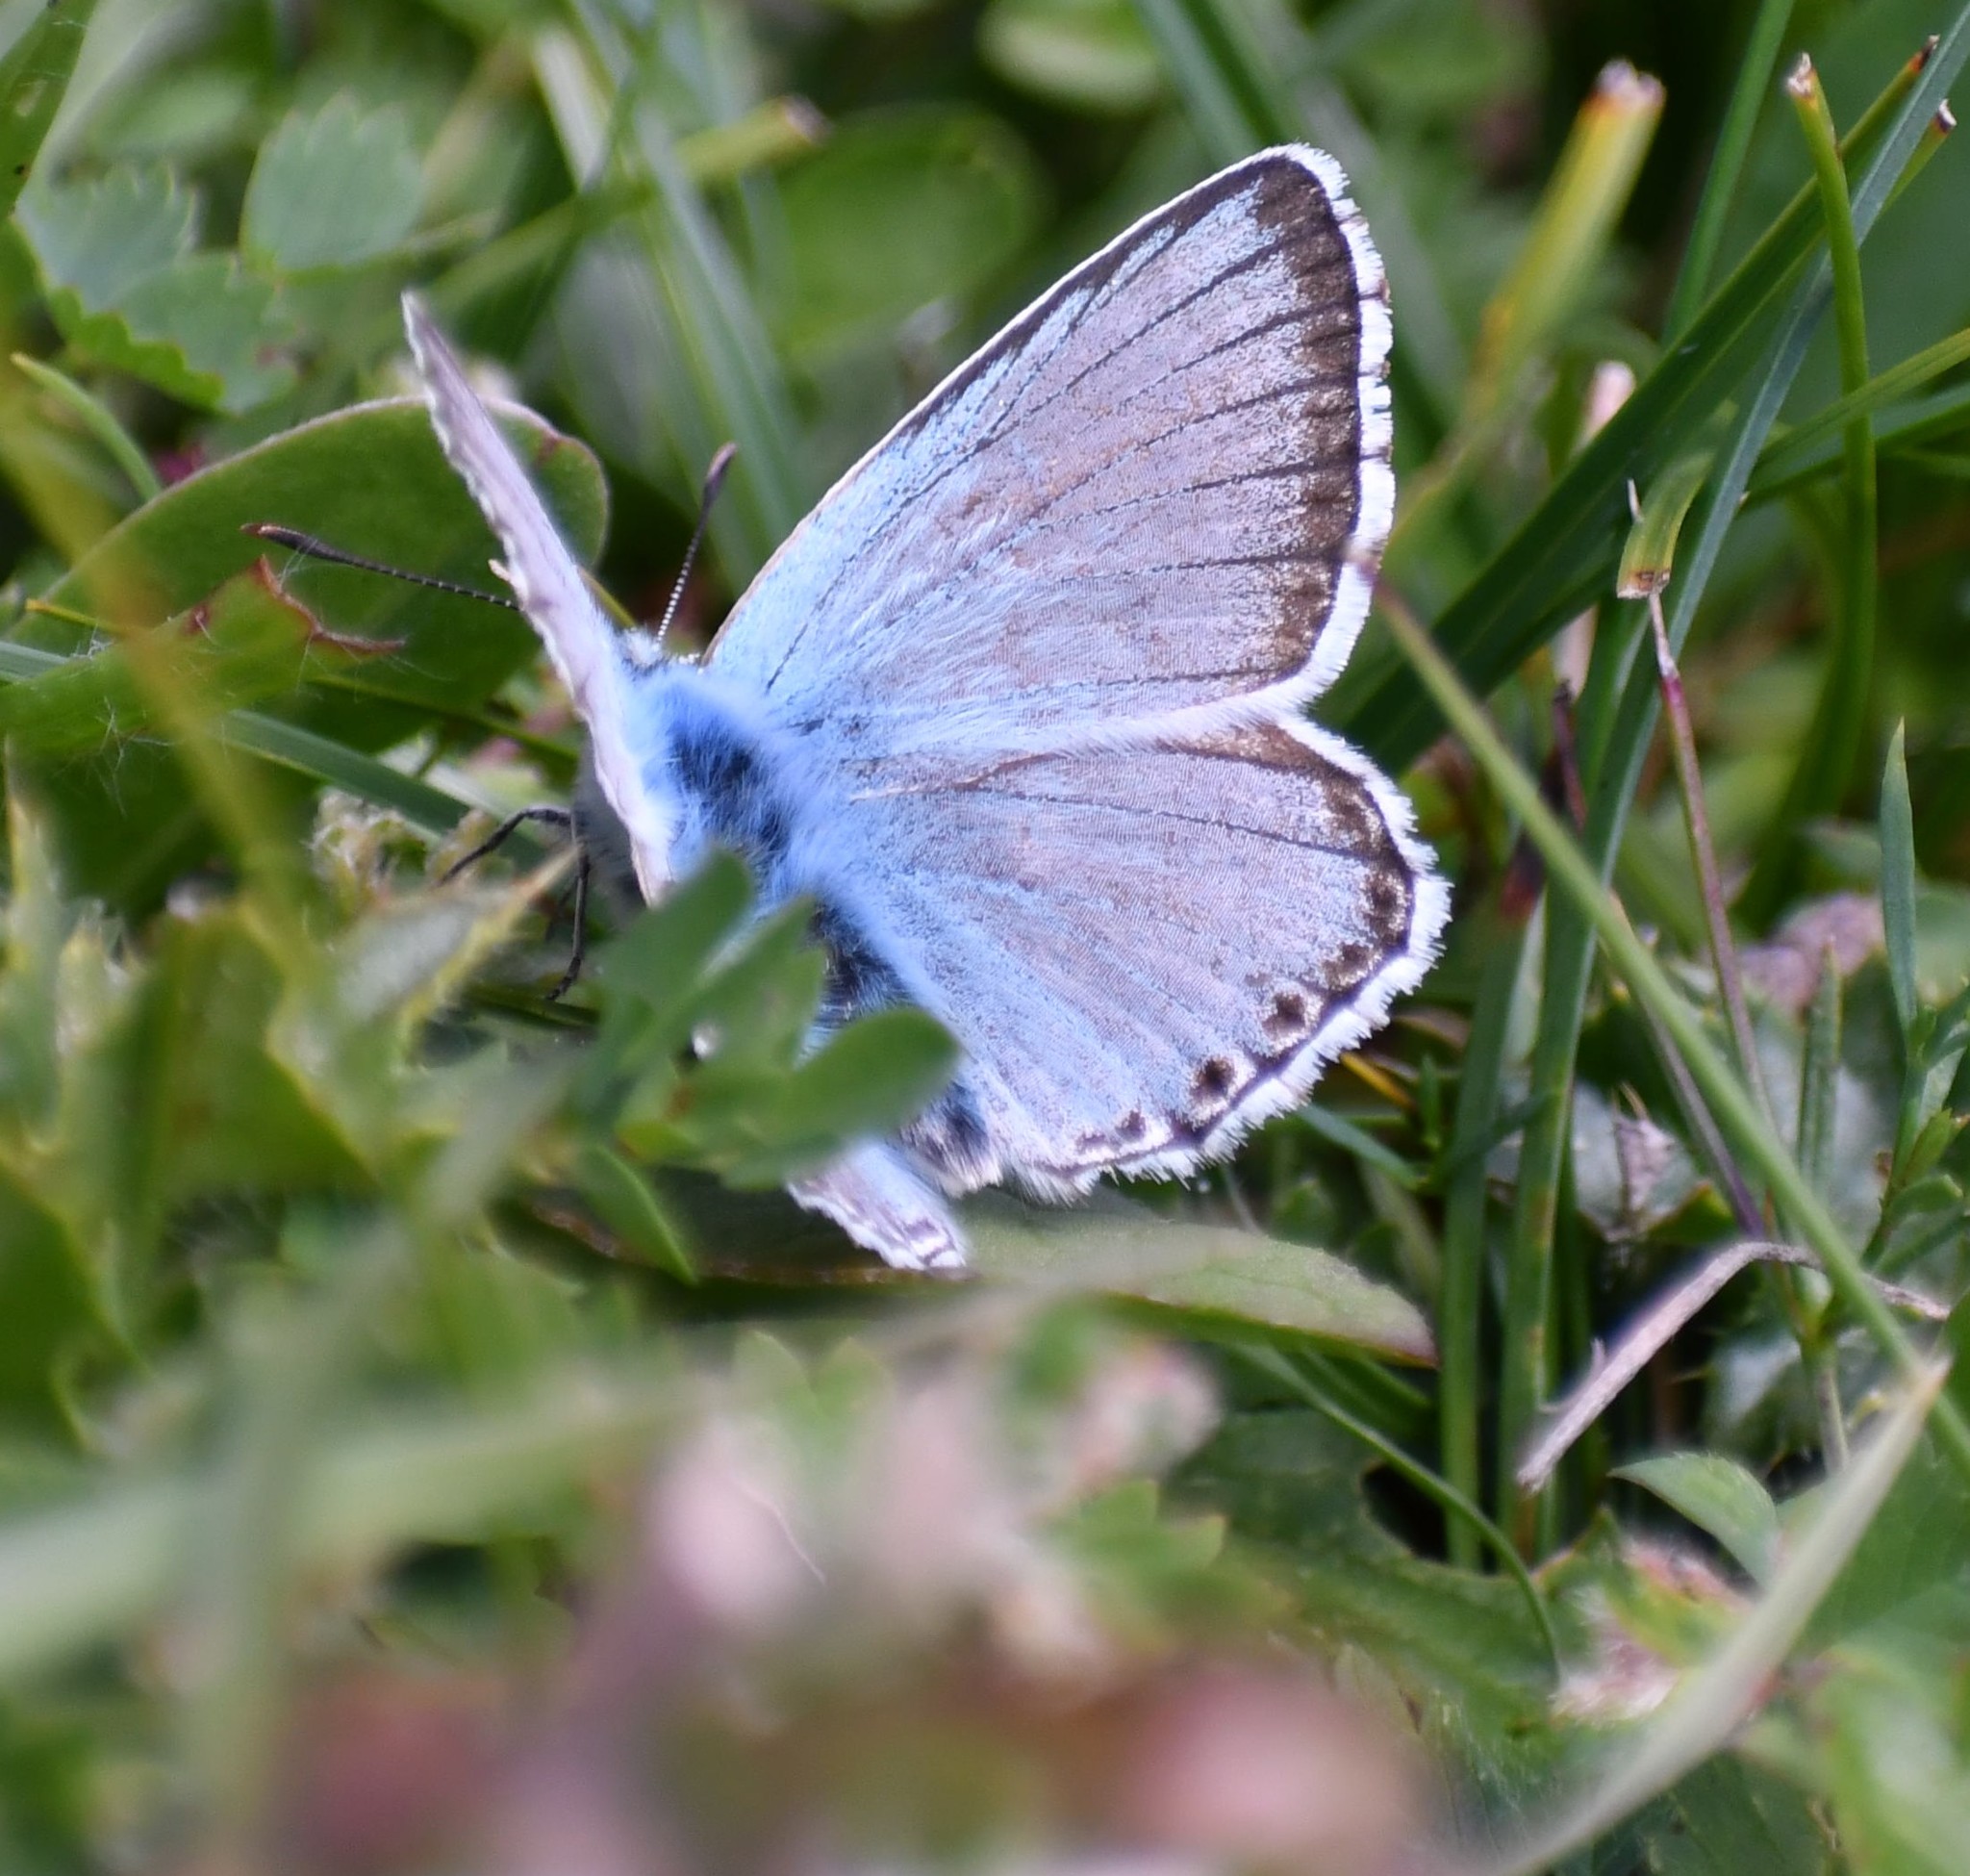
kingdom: Animalia
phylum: Arthropoda
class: Insecta
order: Lepidoptera
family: Lycaenidae
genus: Lysandra
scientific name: Lysandra coridon
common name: Chalkhill blue
